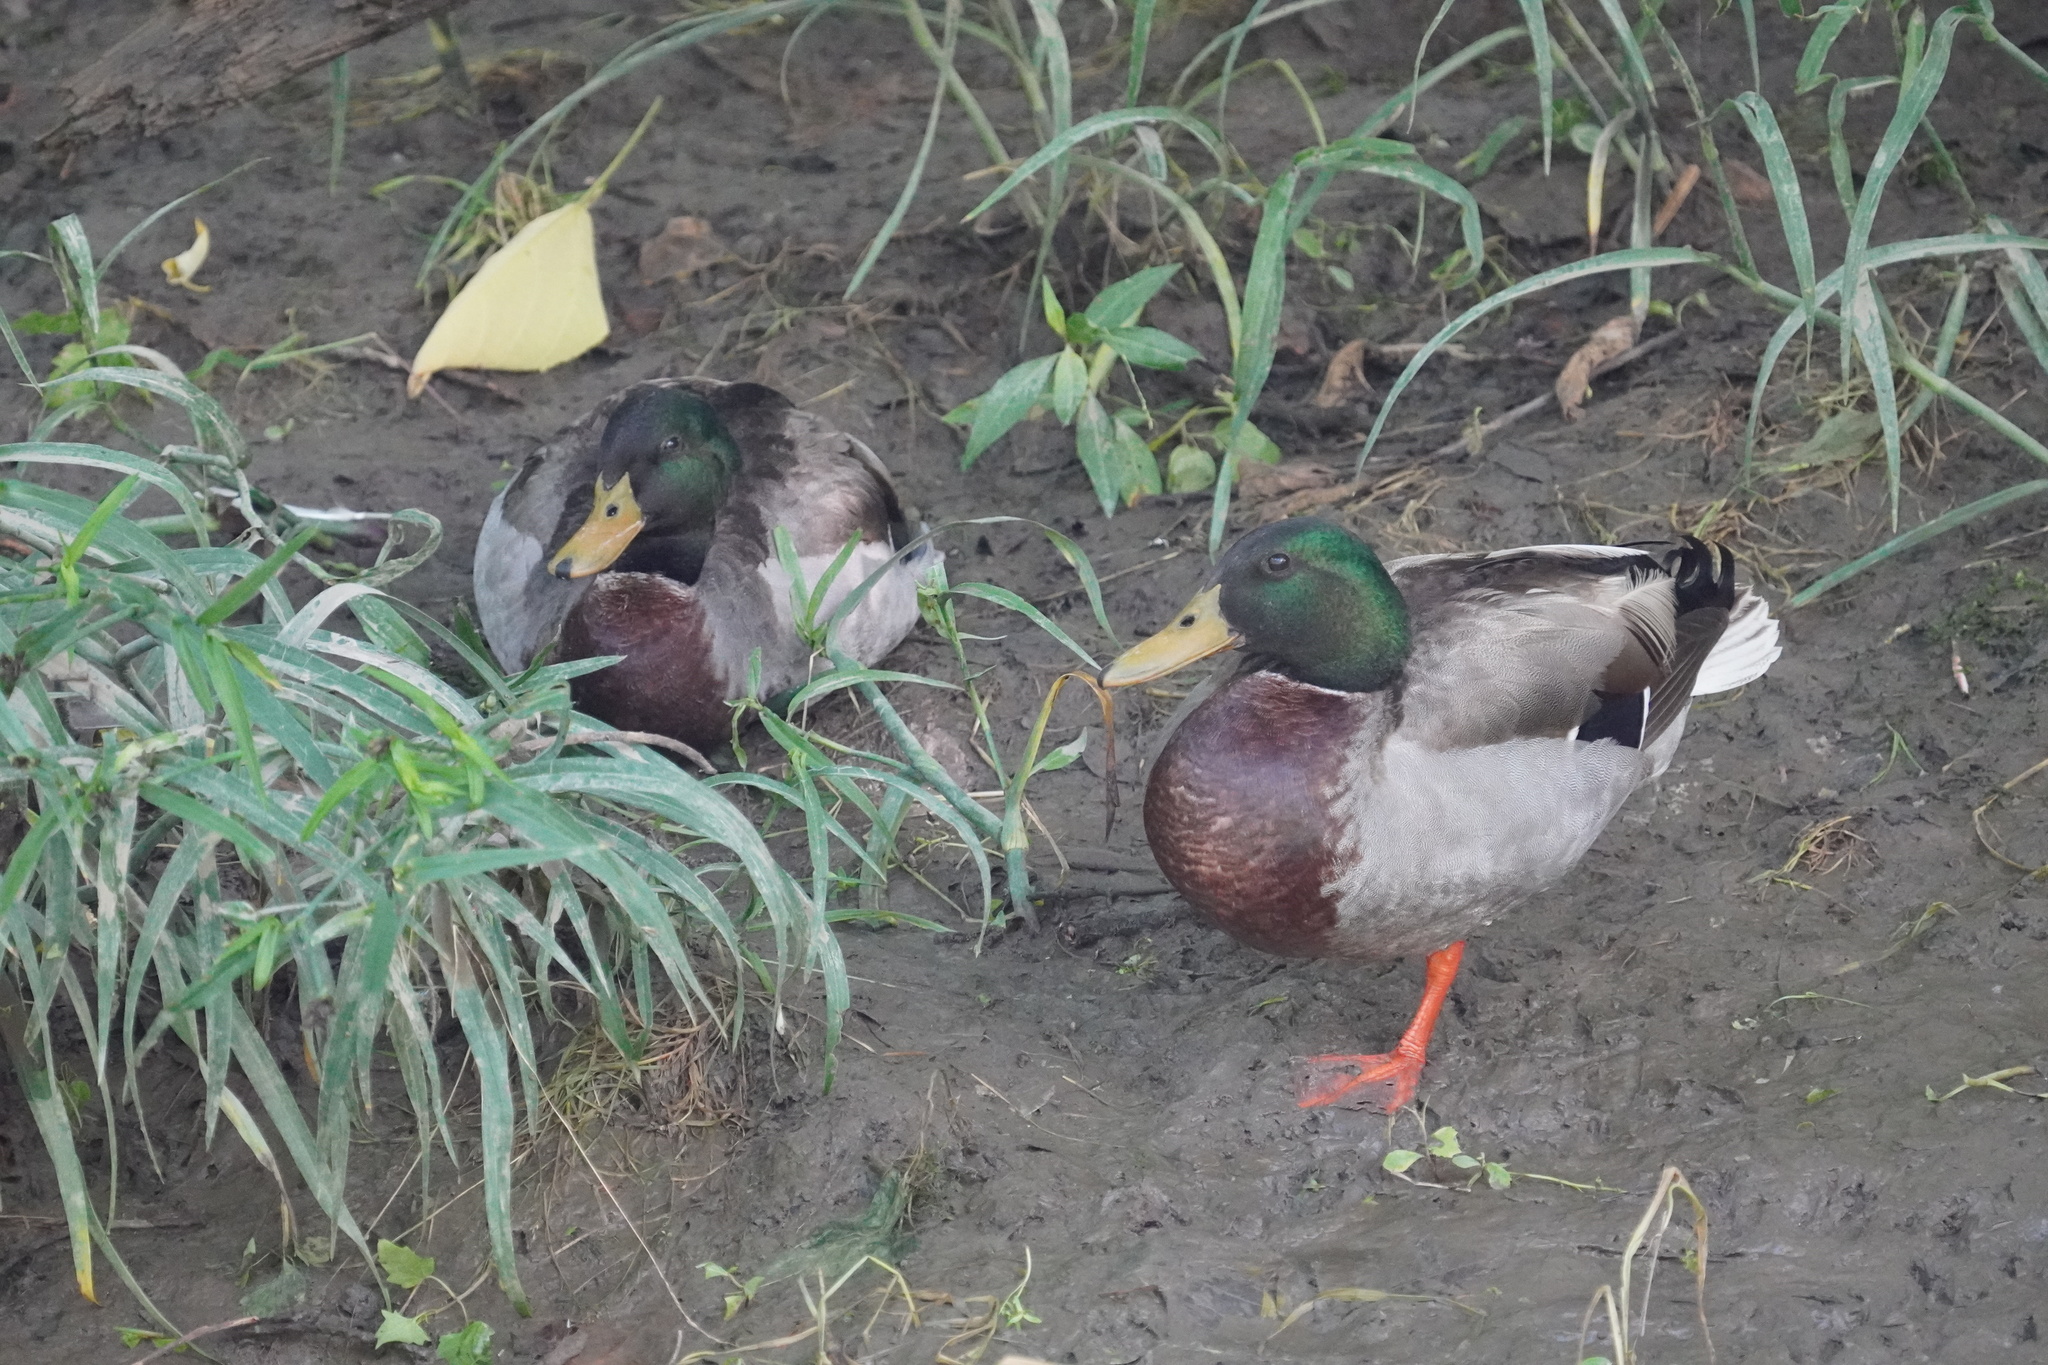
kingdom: Animalia
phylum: Chordata
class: Aves
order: Anseriformes
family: Anatidae
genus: Anas
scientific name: Anas platyrhynchos
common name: Mallard
